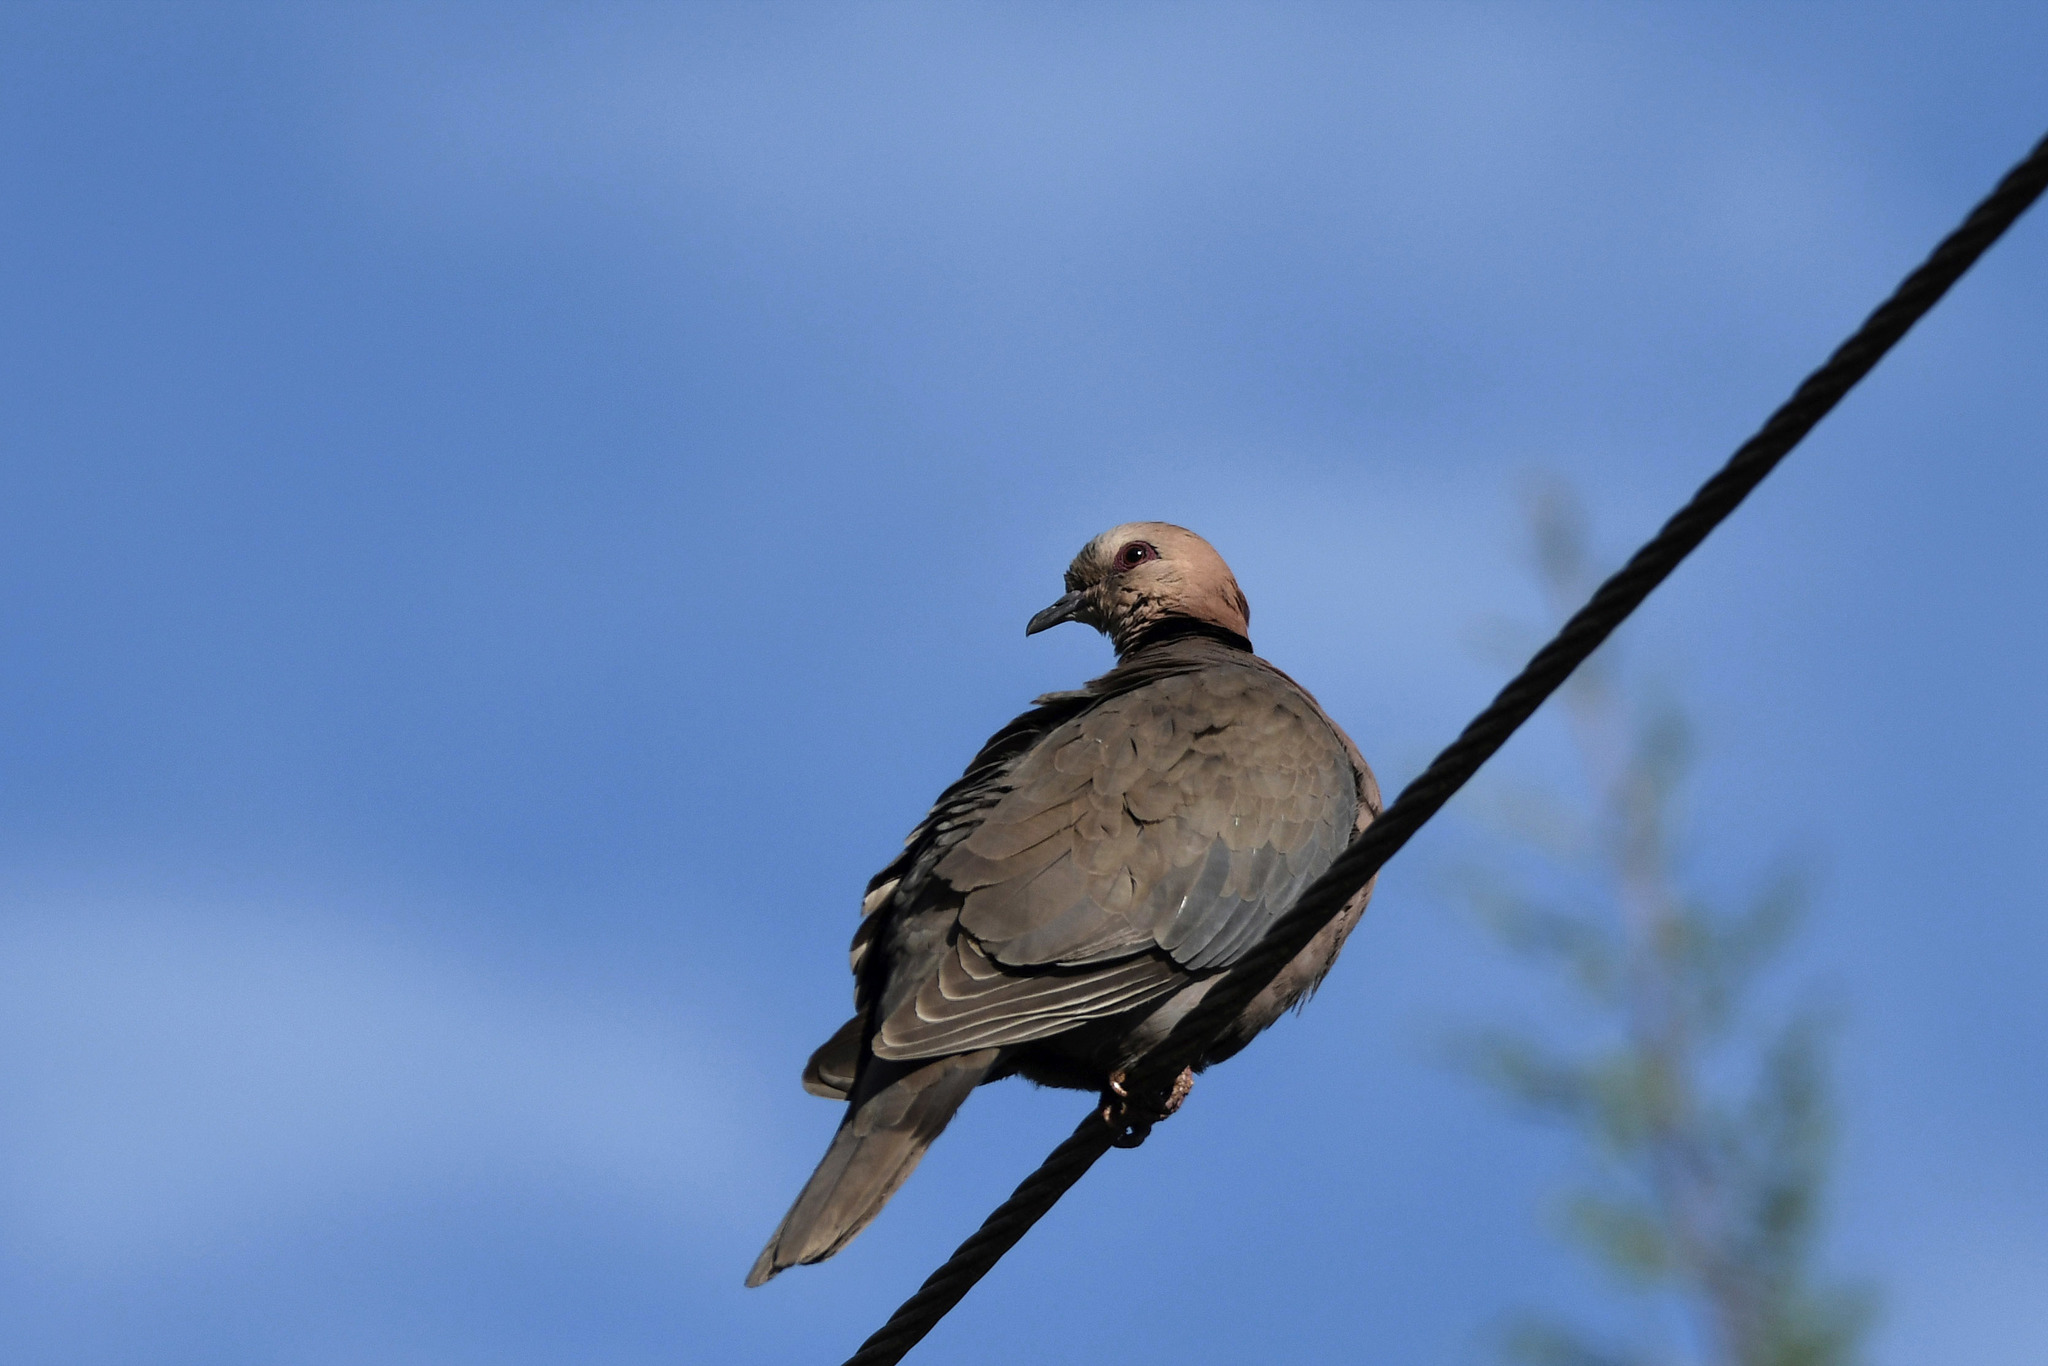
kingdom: Animalia
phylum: Chordata
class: Aves
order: Columbiformes
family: Columbidae
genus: Streptopelia
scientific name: Streptopelia semitorquata
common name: Red-eyed dove
